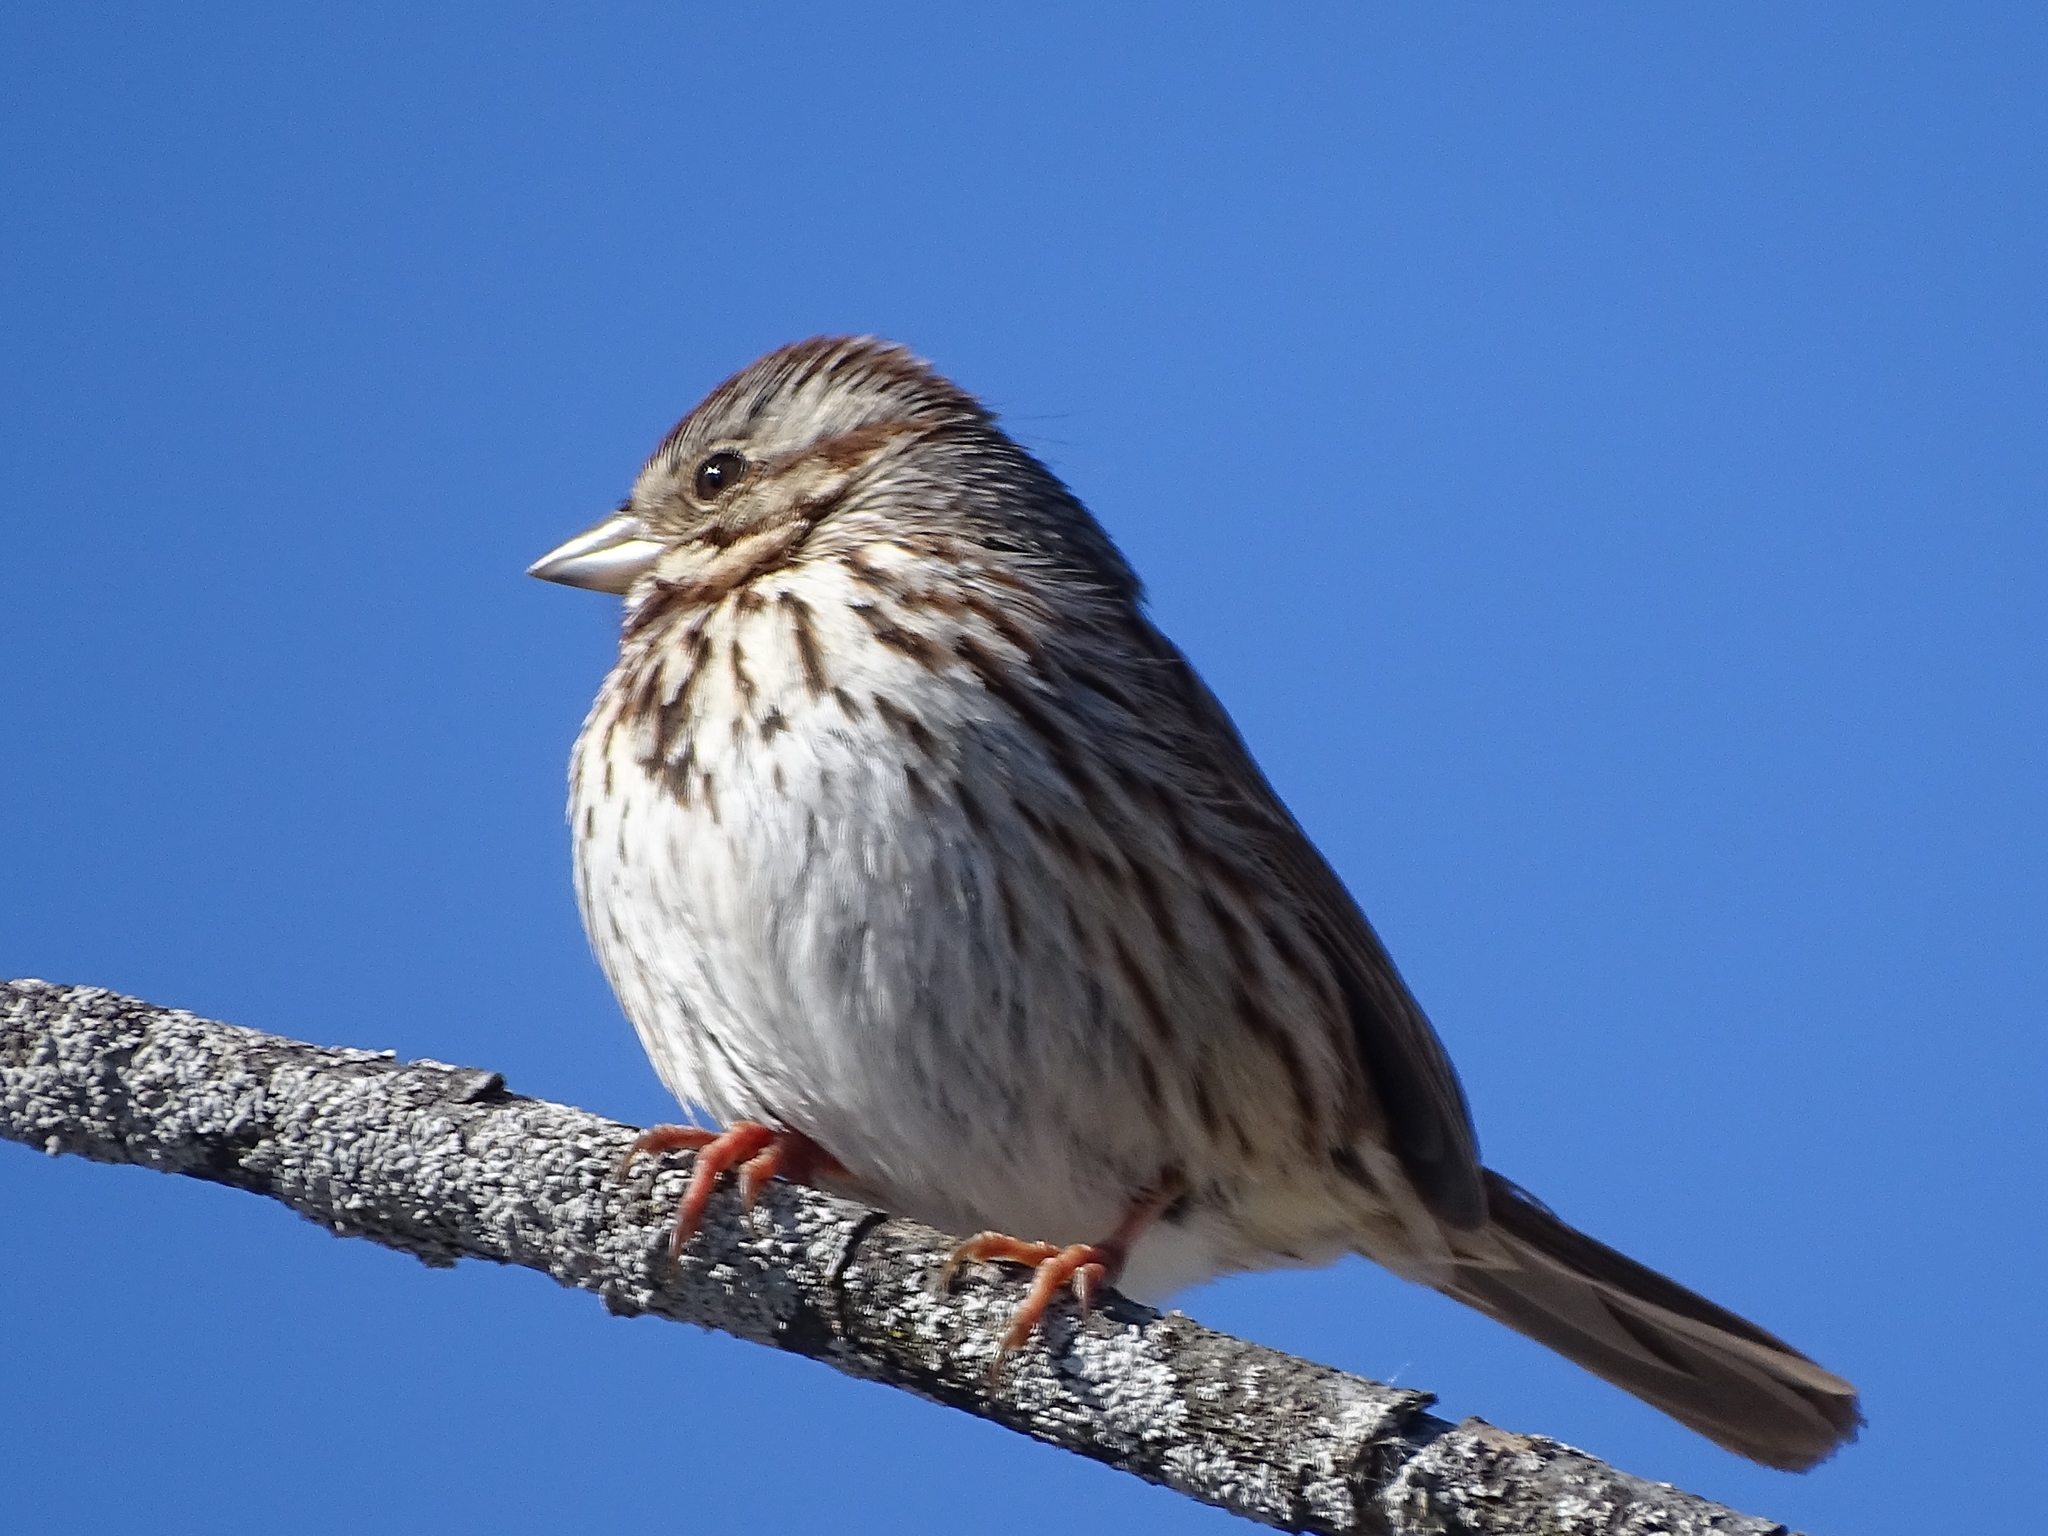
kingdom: Animalia
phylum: Chordata
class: Aves
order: Passeriformes
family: Passerellidae
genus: Melospiza
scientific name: Melospiza melodia
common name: Song sparrow
